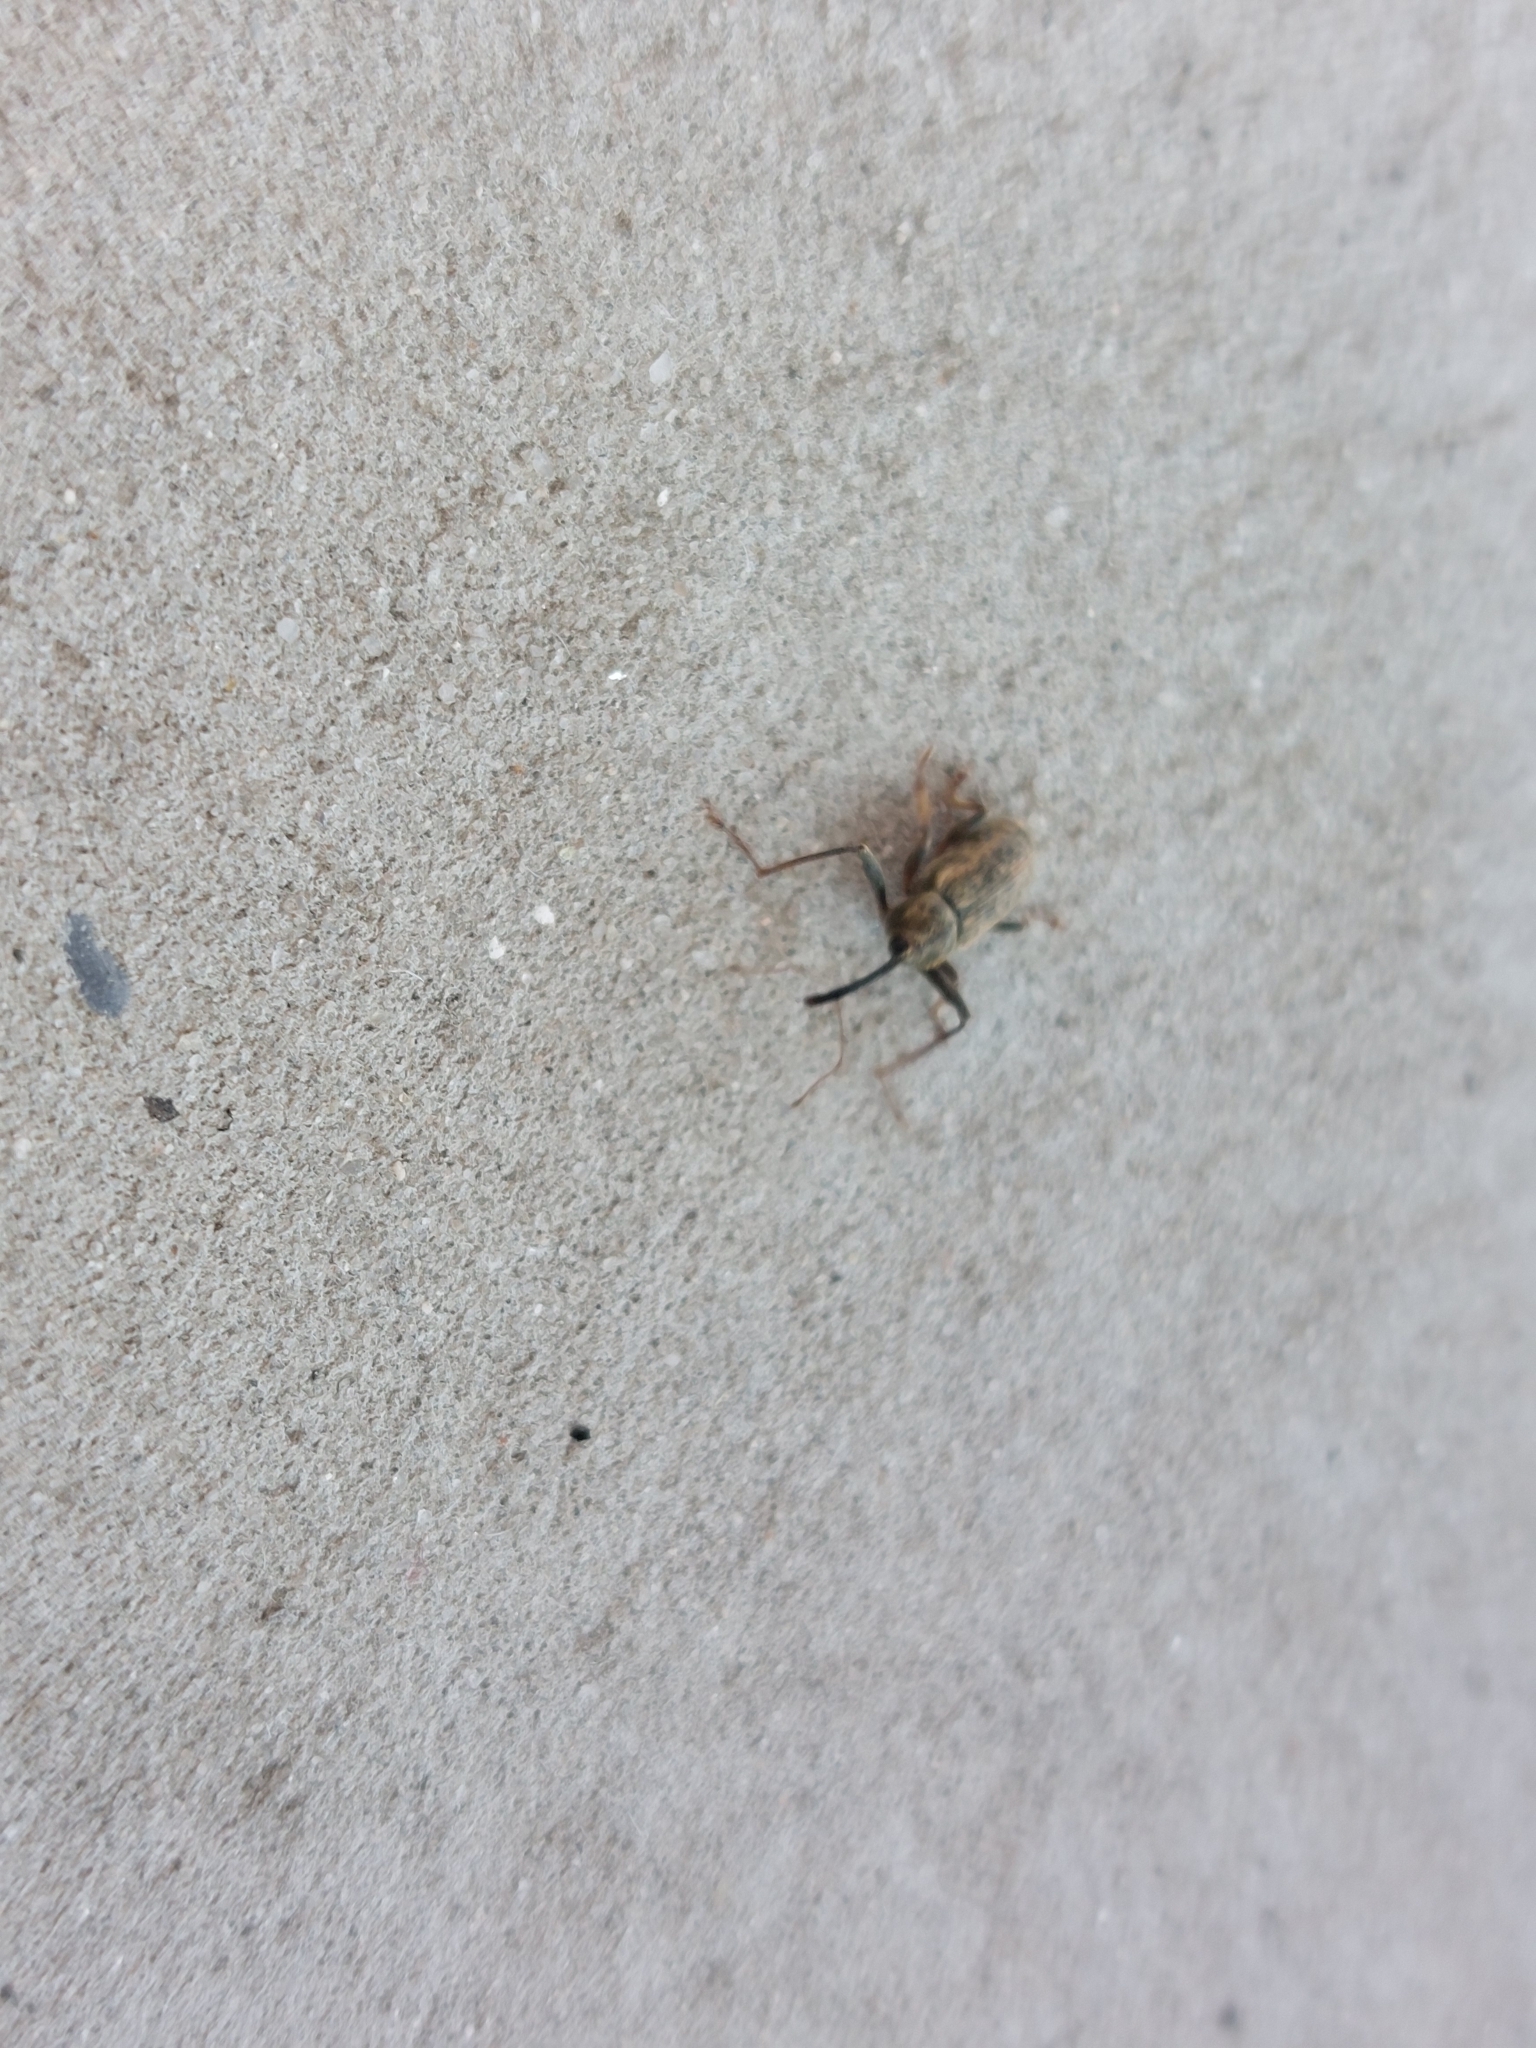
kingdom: Animalia
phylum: Arthropoda
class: Insecta
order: Coleoptera
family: Curculionidae
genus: Dorytomus
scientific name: Dorytomus longimanus
